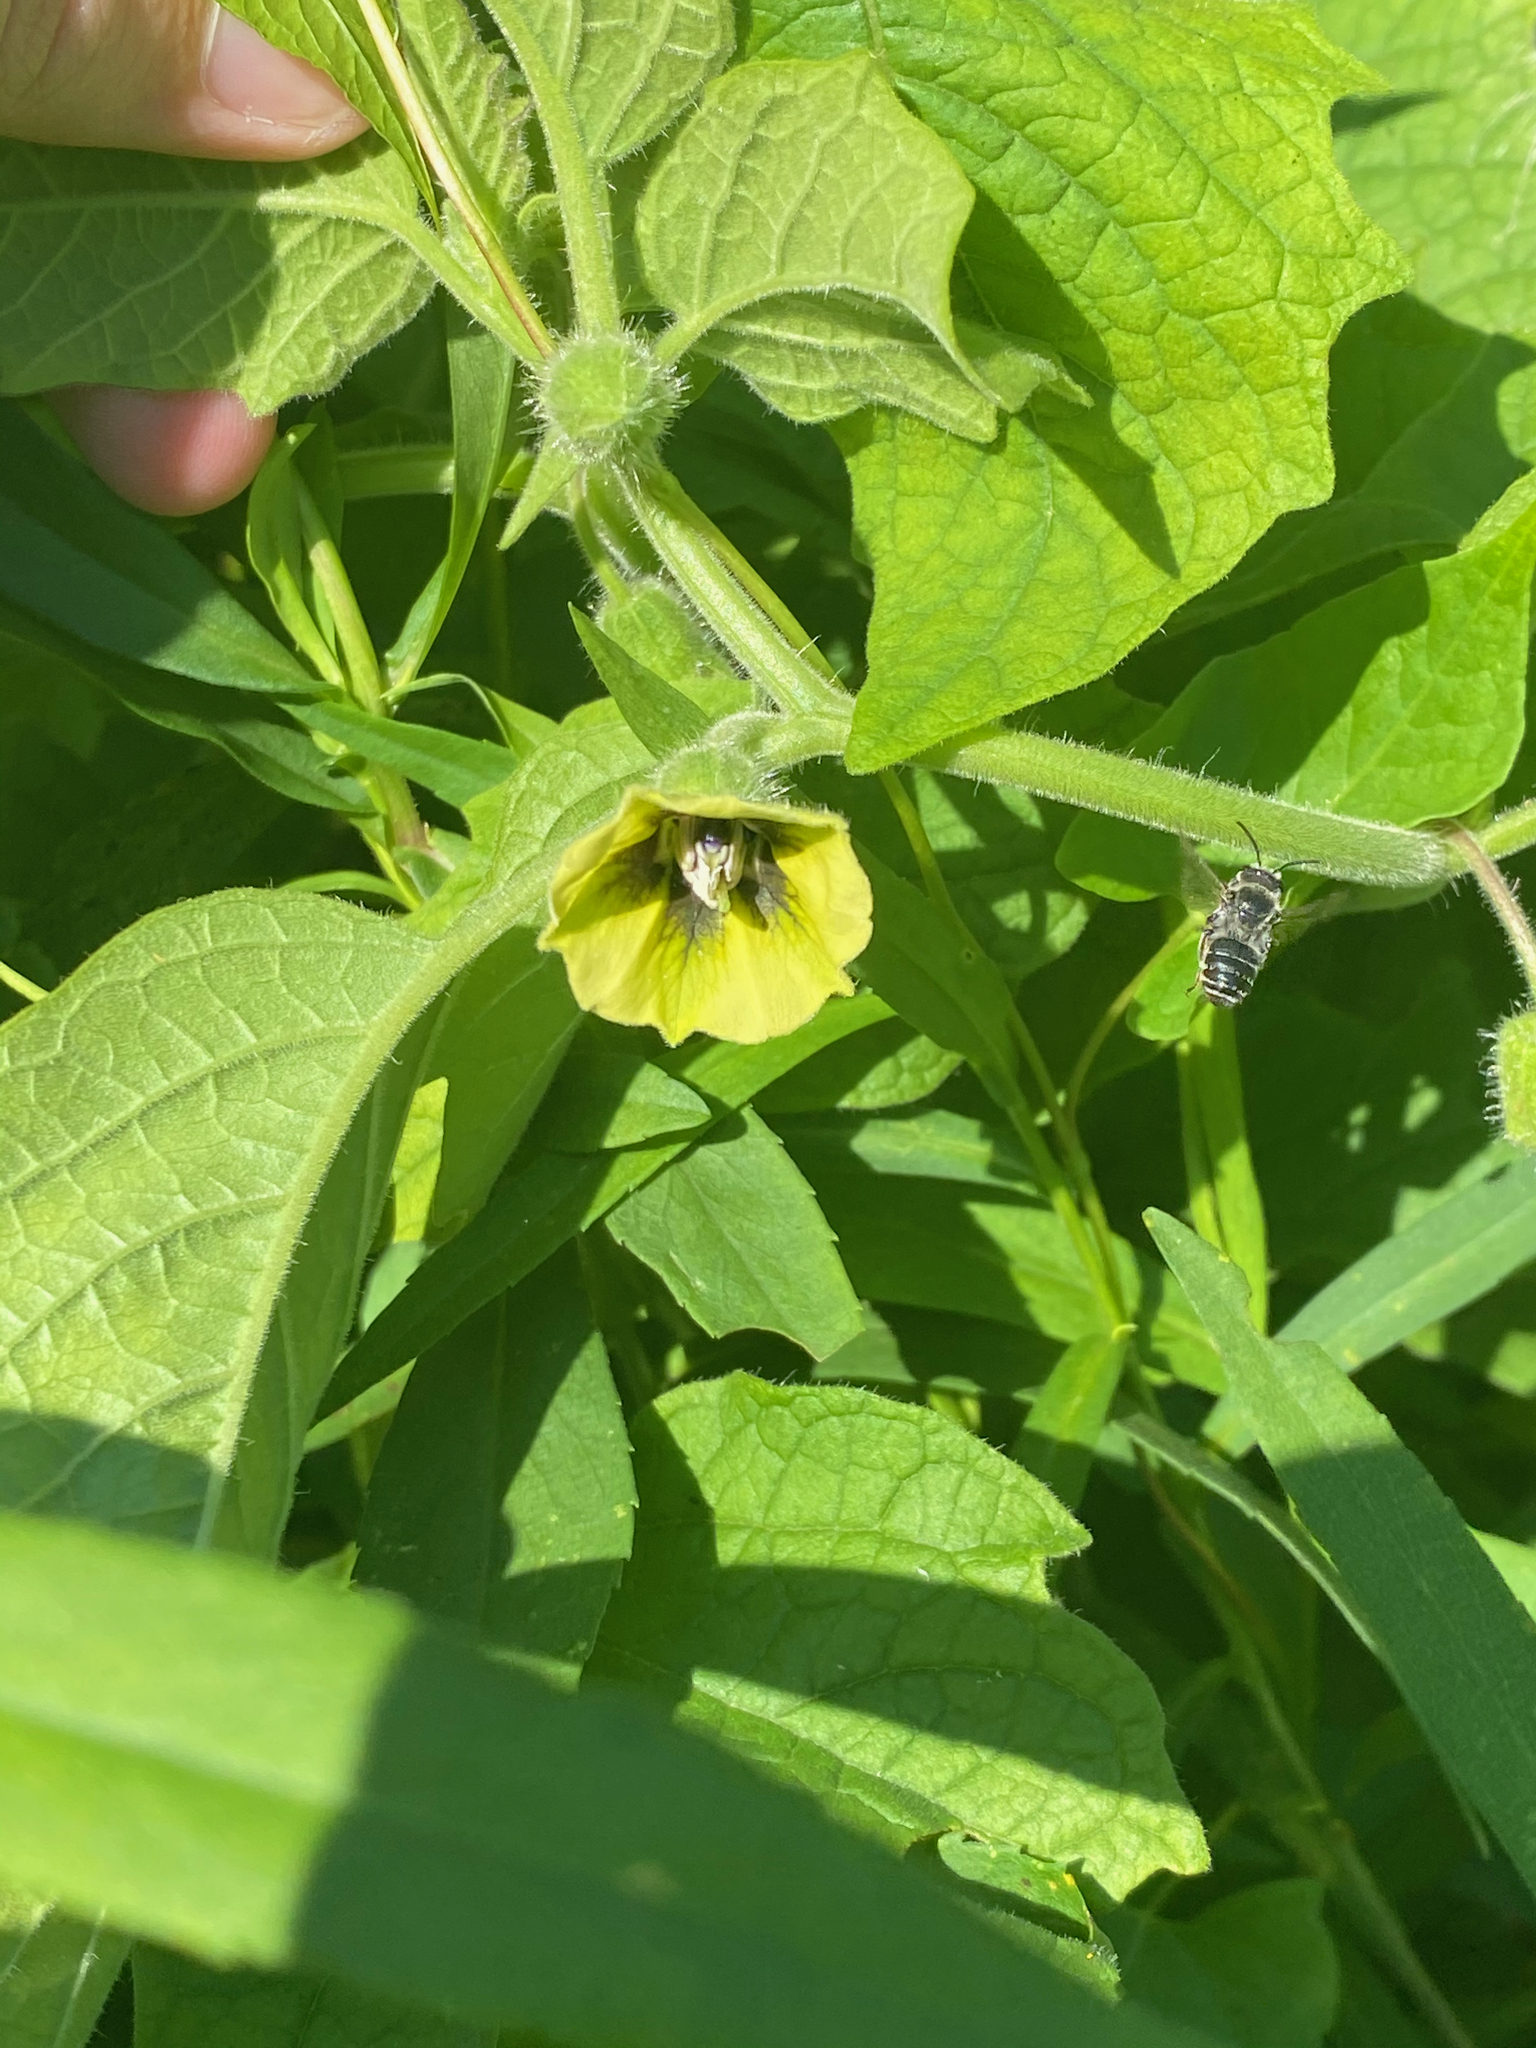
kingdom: Plantae
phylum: Tracheophyta
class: Magnoliopsida
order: Solanales
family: Solanaceae
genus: Physalis
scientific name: Physalis heterophylla
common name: Clammy ground-cherry
